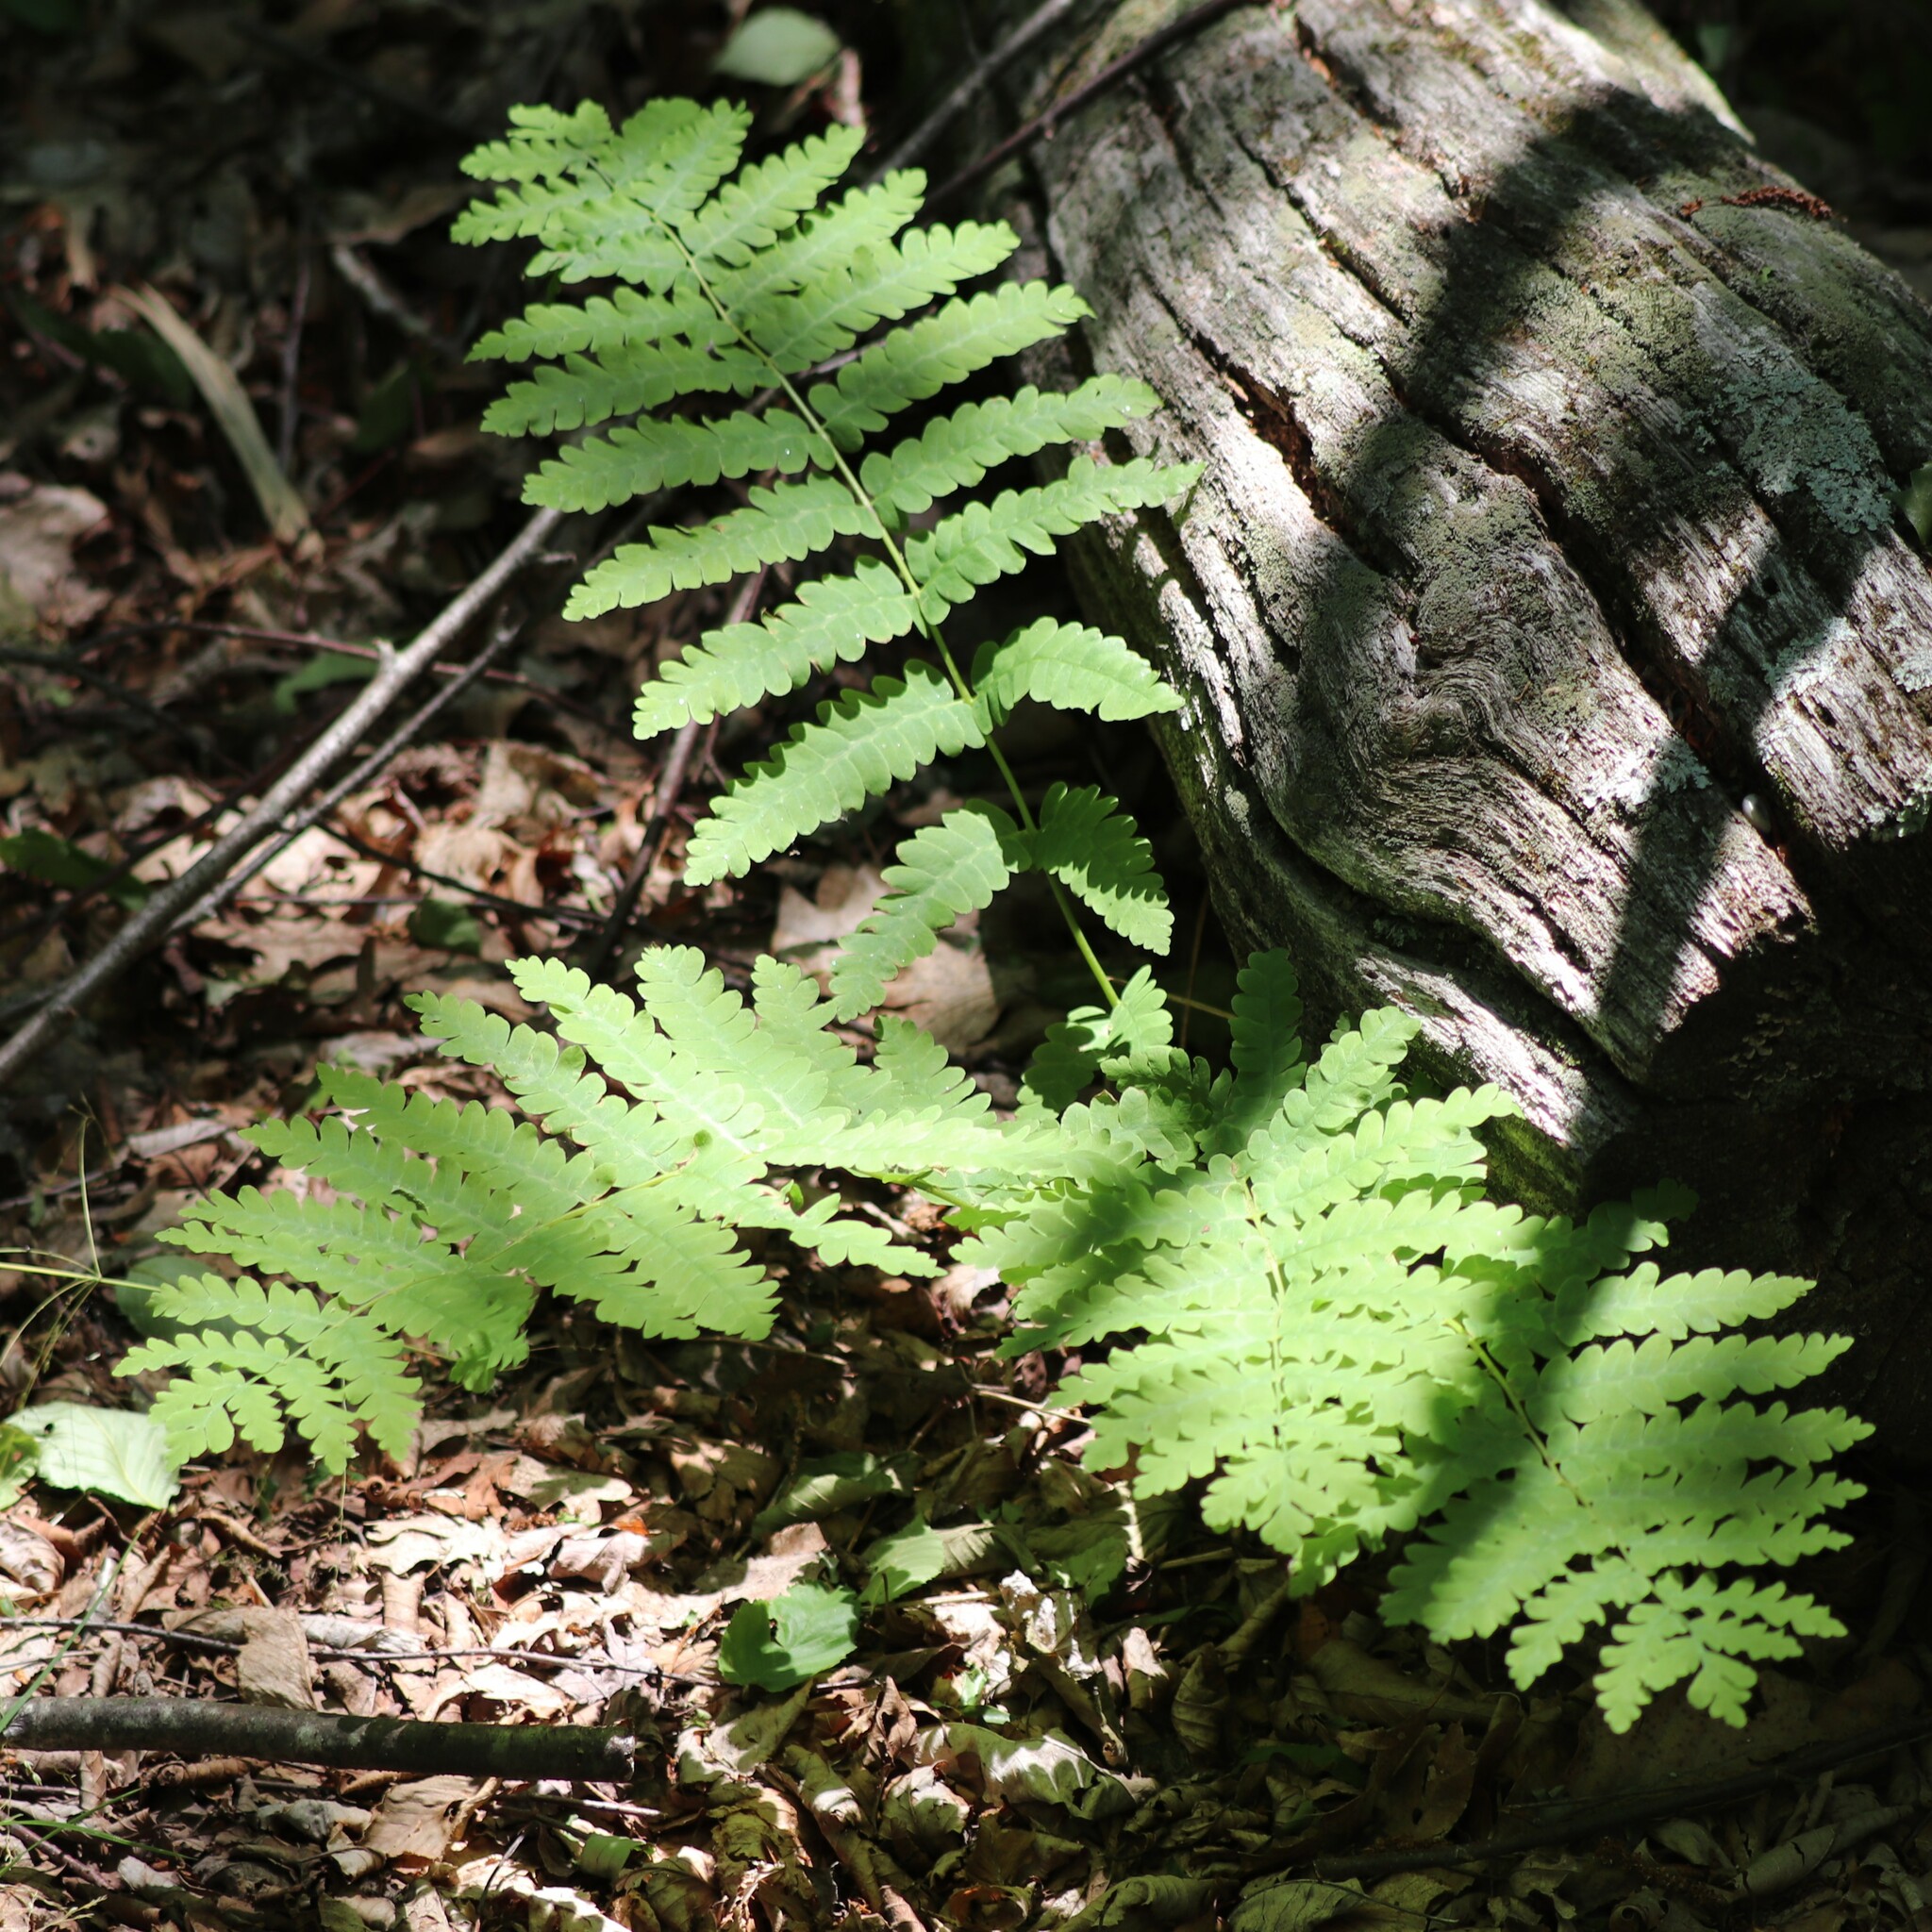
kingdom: Plantae
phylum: Tracheophyta
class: Polypodiopsida
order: Osmundales
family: Osmundaceae
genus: Claytosmunda
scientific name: Claytosmunda claytoniana
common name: Clayton's fern
